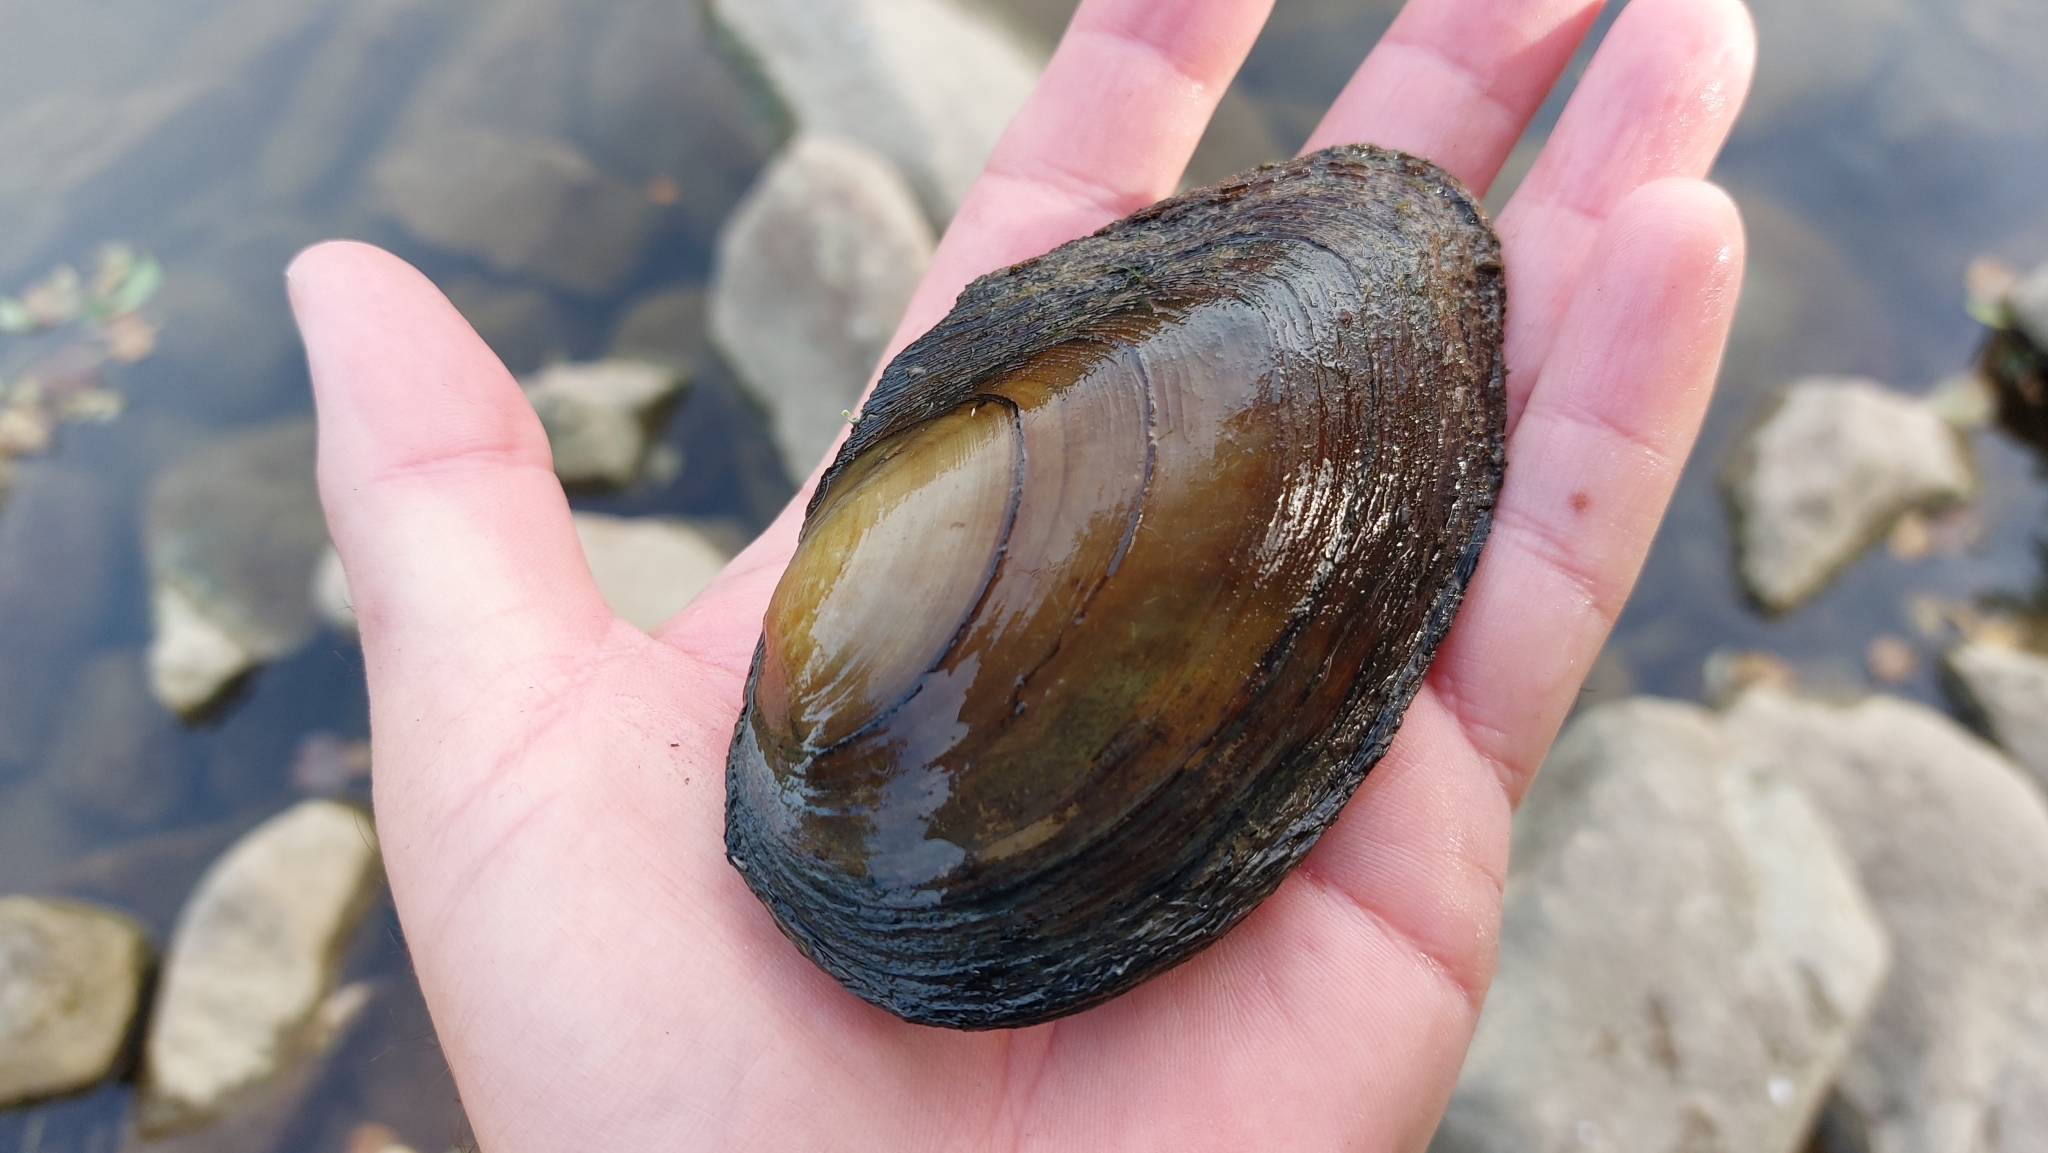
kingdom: Animalia
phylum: Mollusca
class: Bivalvia
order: Unionida
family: Unionidae
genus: Anodonta
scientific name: Anodonta anatina
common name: Duck mussel
